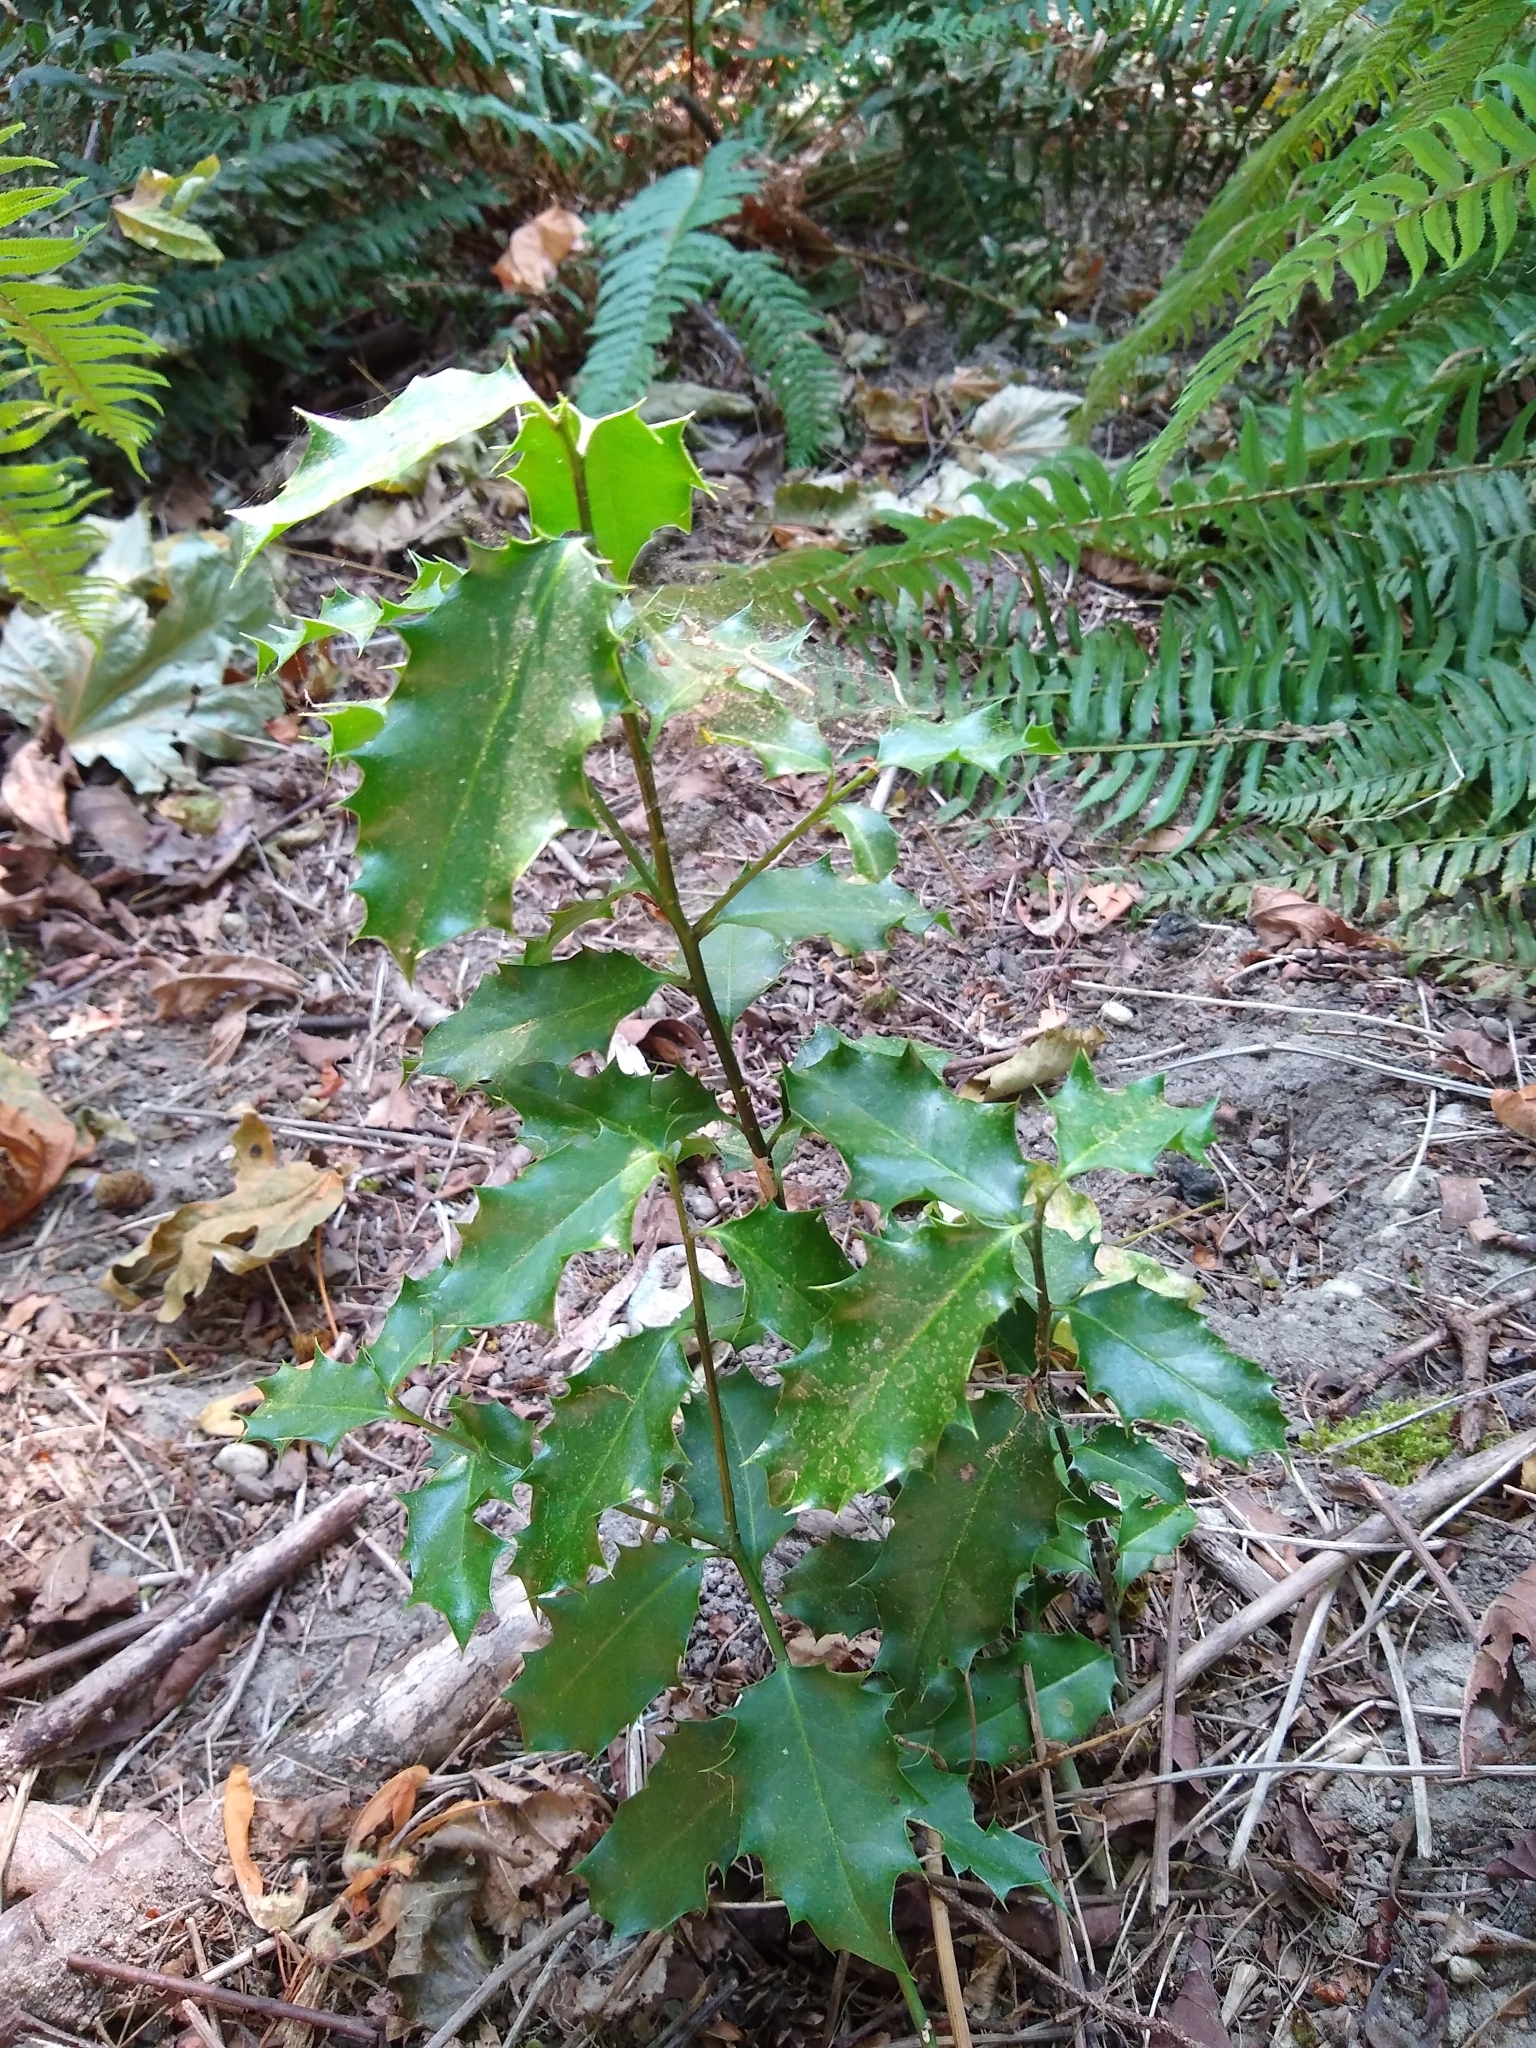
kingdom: Plantae
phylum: Tracheophyta
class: Magnoliopsida
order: Aquifoliales
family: Aquifoliaceae
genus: Ilex
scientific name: Ilex aquifolium
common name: English holly
